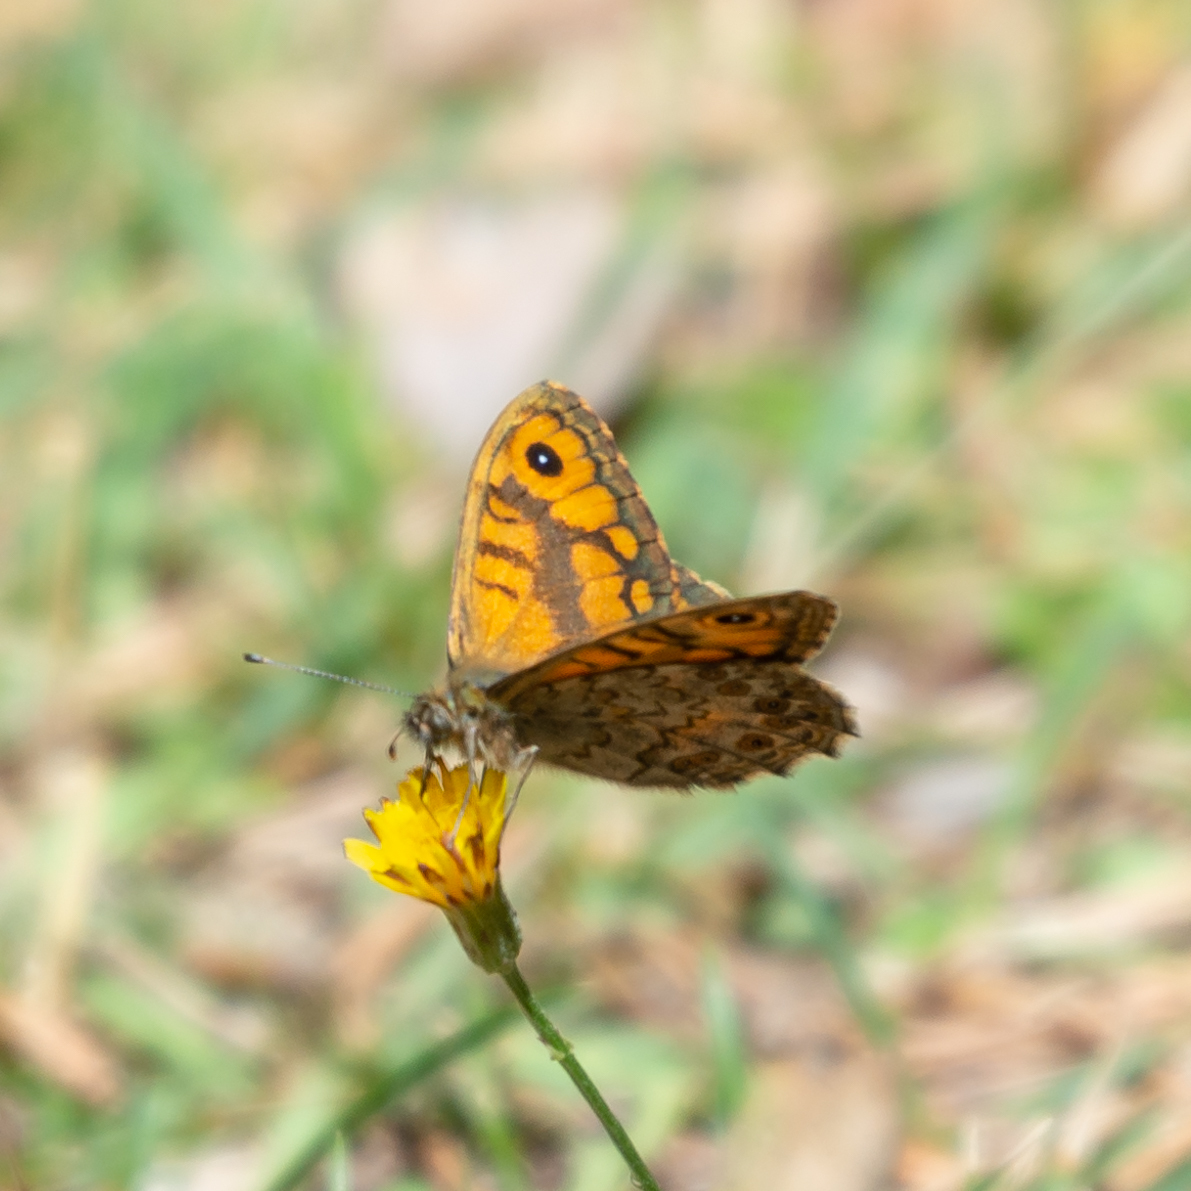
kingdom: Animalia
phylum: Arthropoda
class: Insecta
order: Lepidoptera
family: Nymphalidae
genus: Pararge
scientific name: Pararge Lasiommata megera
